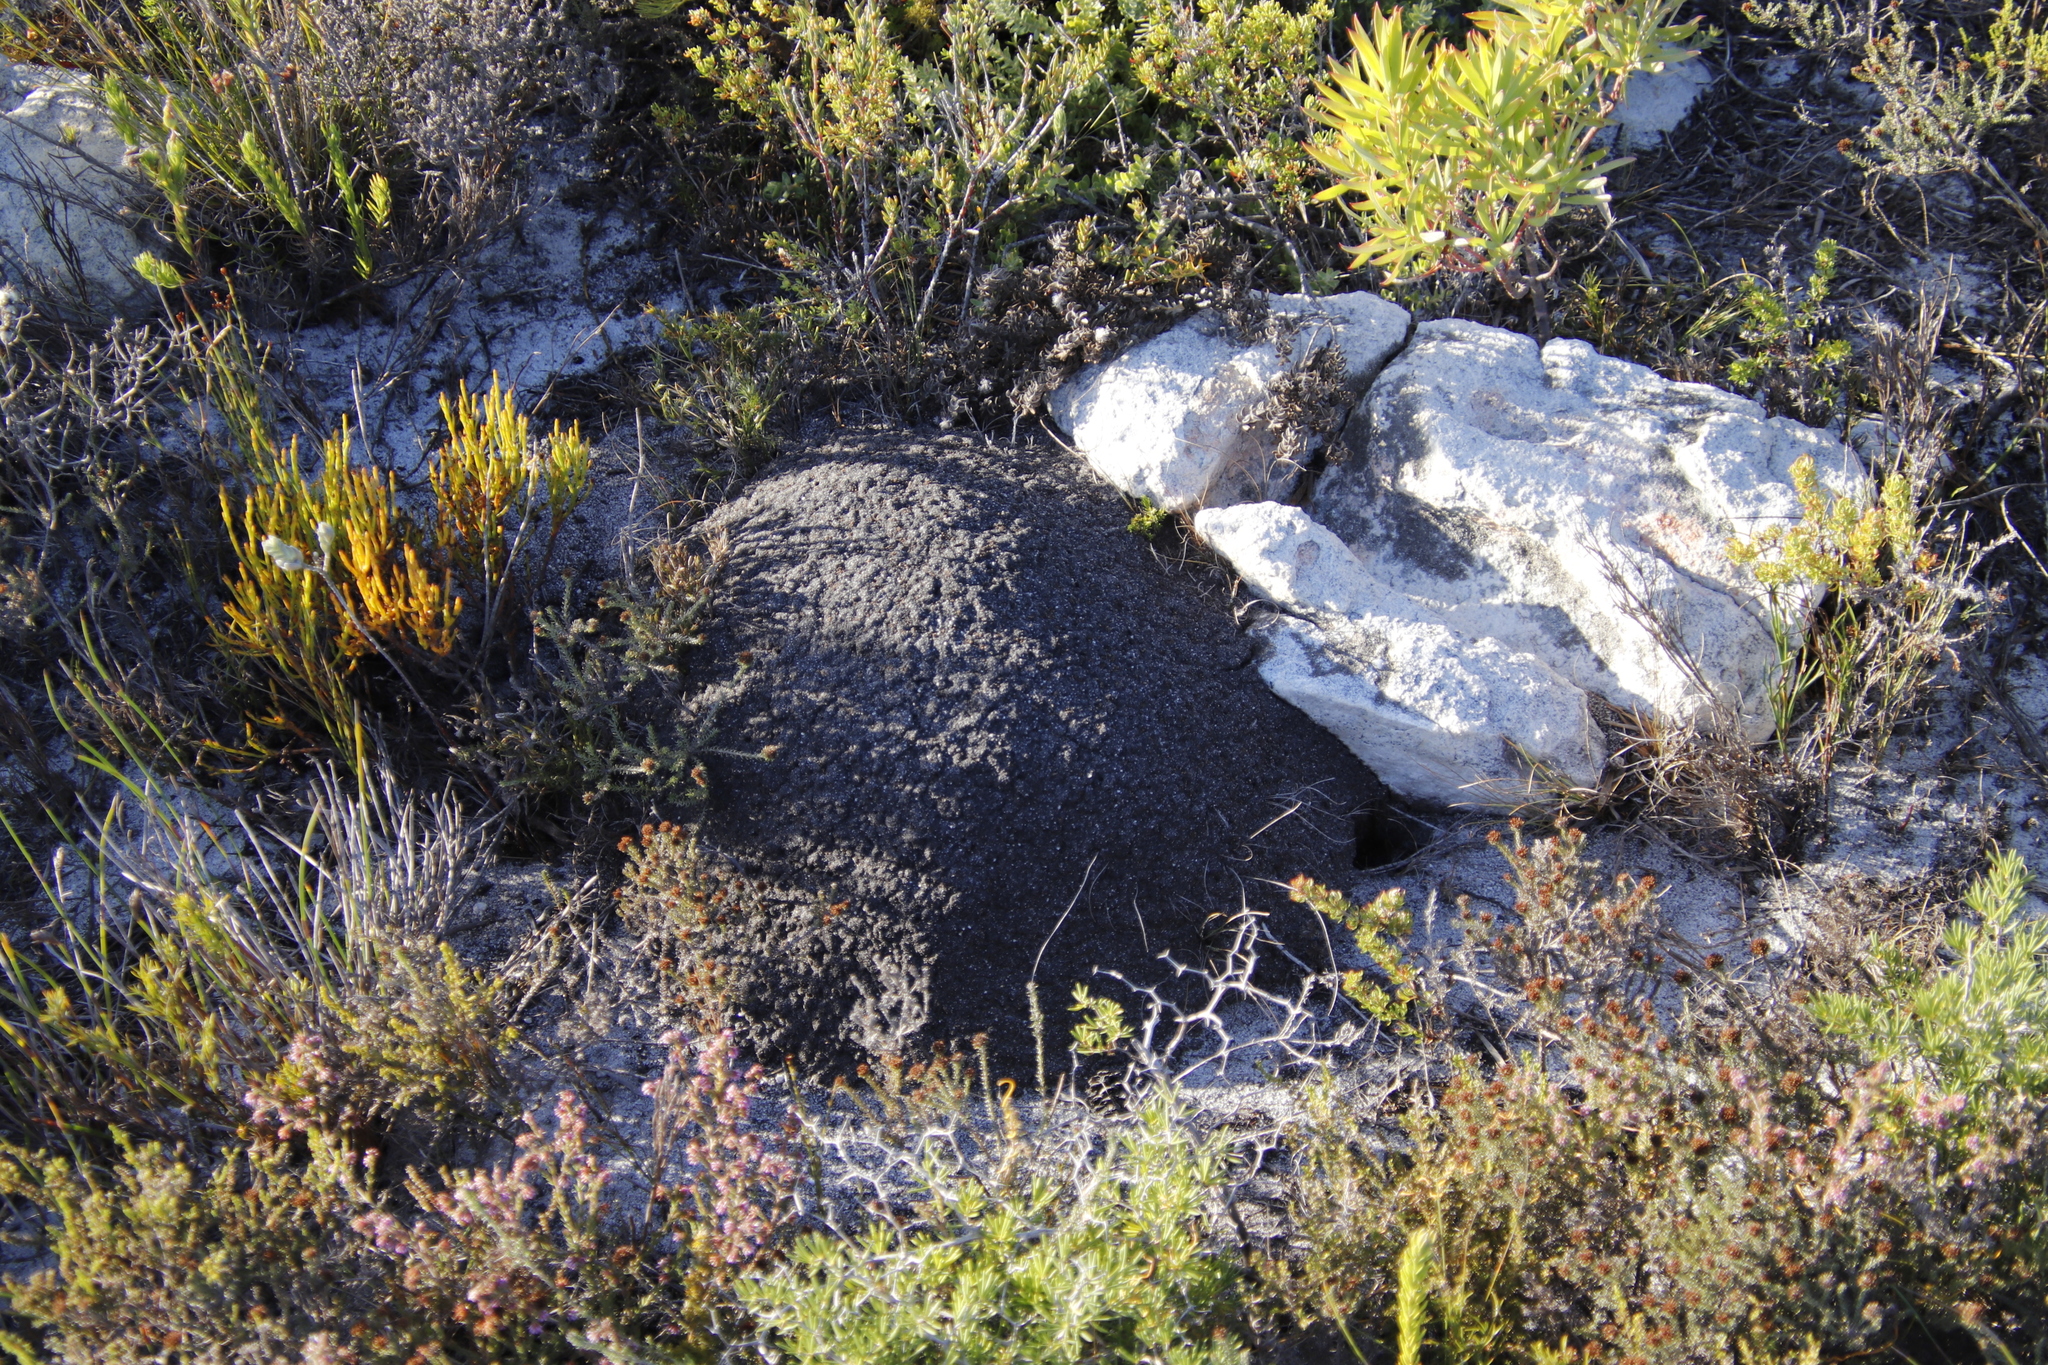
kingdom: Animalia
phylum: Arthropoda
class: Insecta
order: Blattodea
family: Termitidae
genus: Amitermes
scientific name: Amitermes hastatus
